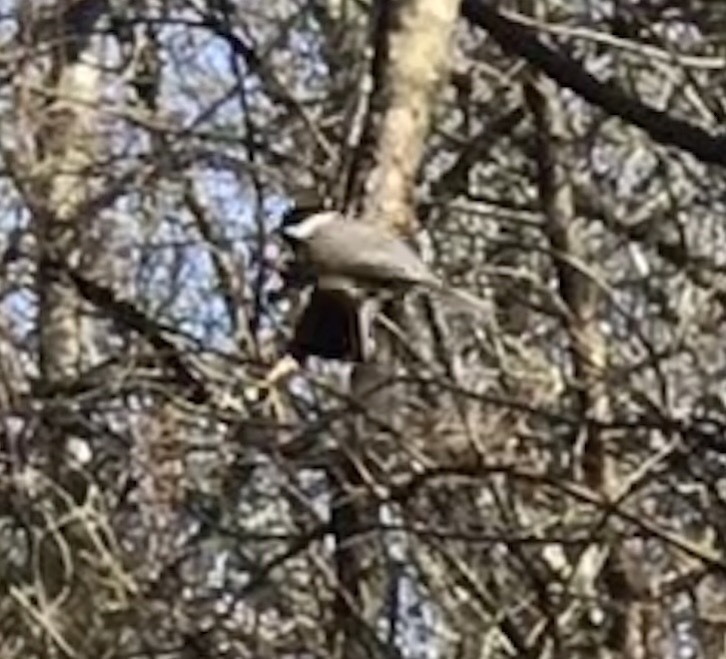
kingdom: Animalia
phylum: Chordata
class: Aves
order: Passeriformes
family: Paridae
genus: Poecile
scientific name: Poecile carolinensis
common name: Carolina chickadee
